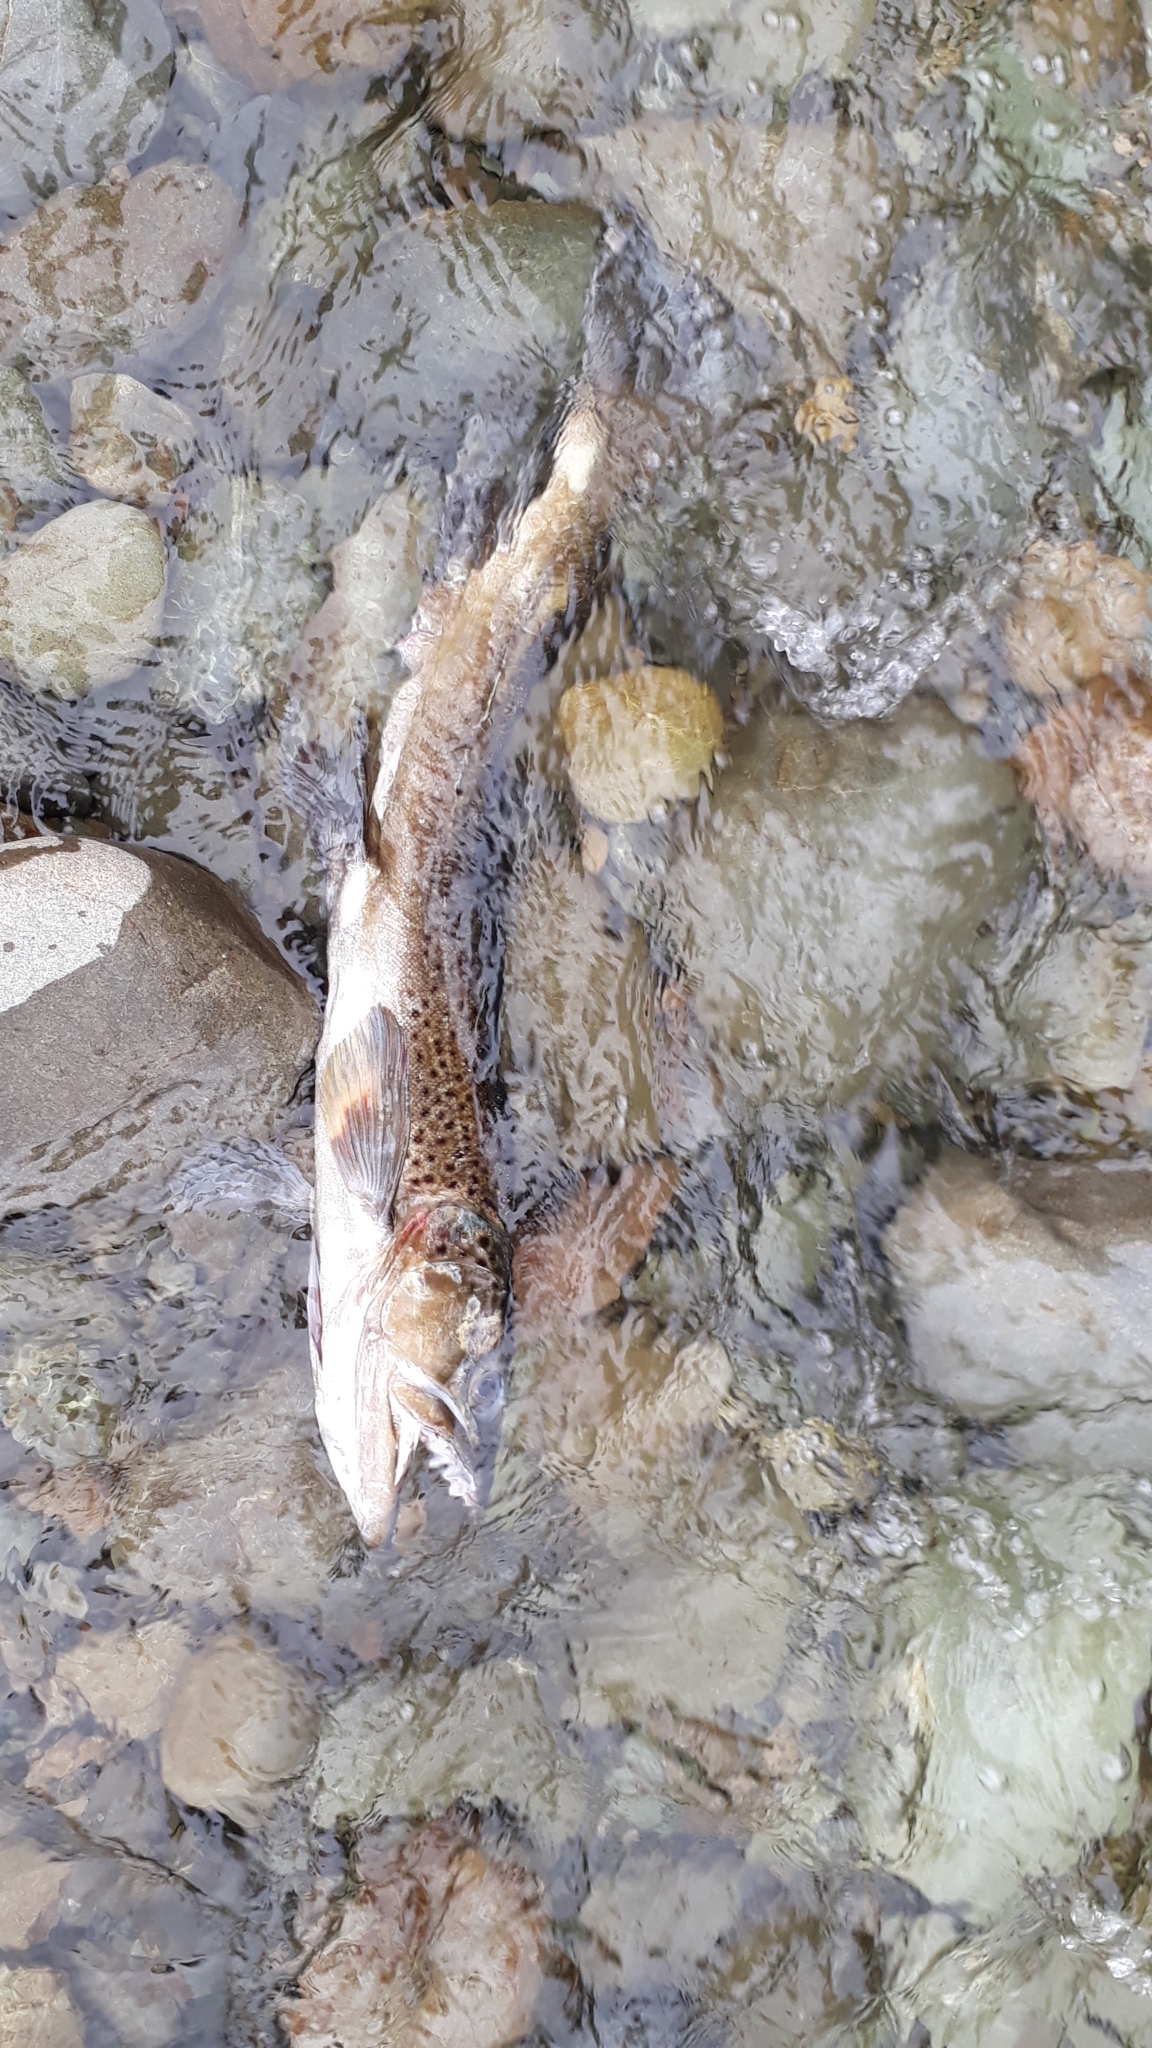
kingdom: Animalia
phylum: Chordata
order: Salmoniformes
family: Salmonidae
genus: Salmo
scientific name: Salmo trutta
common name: Brown trout
